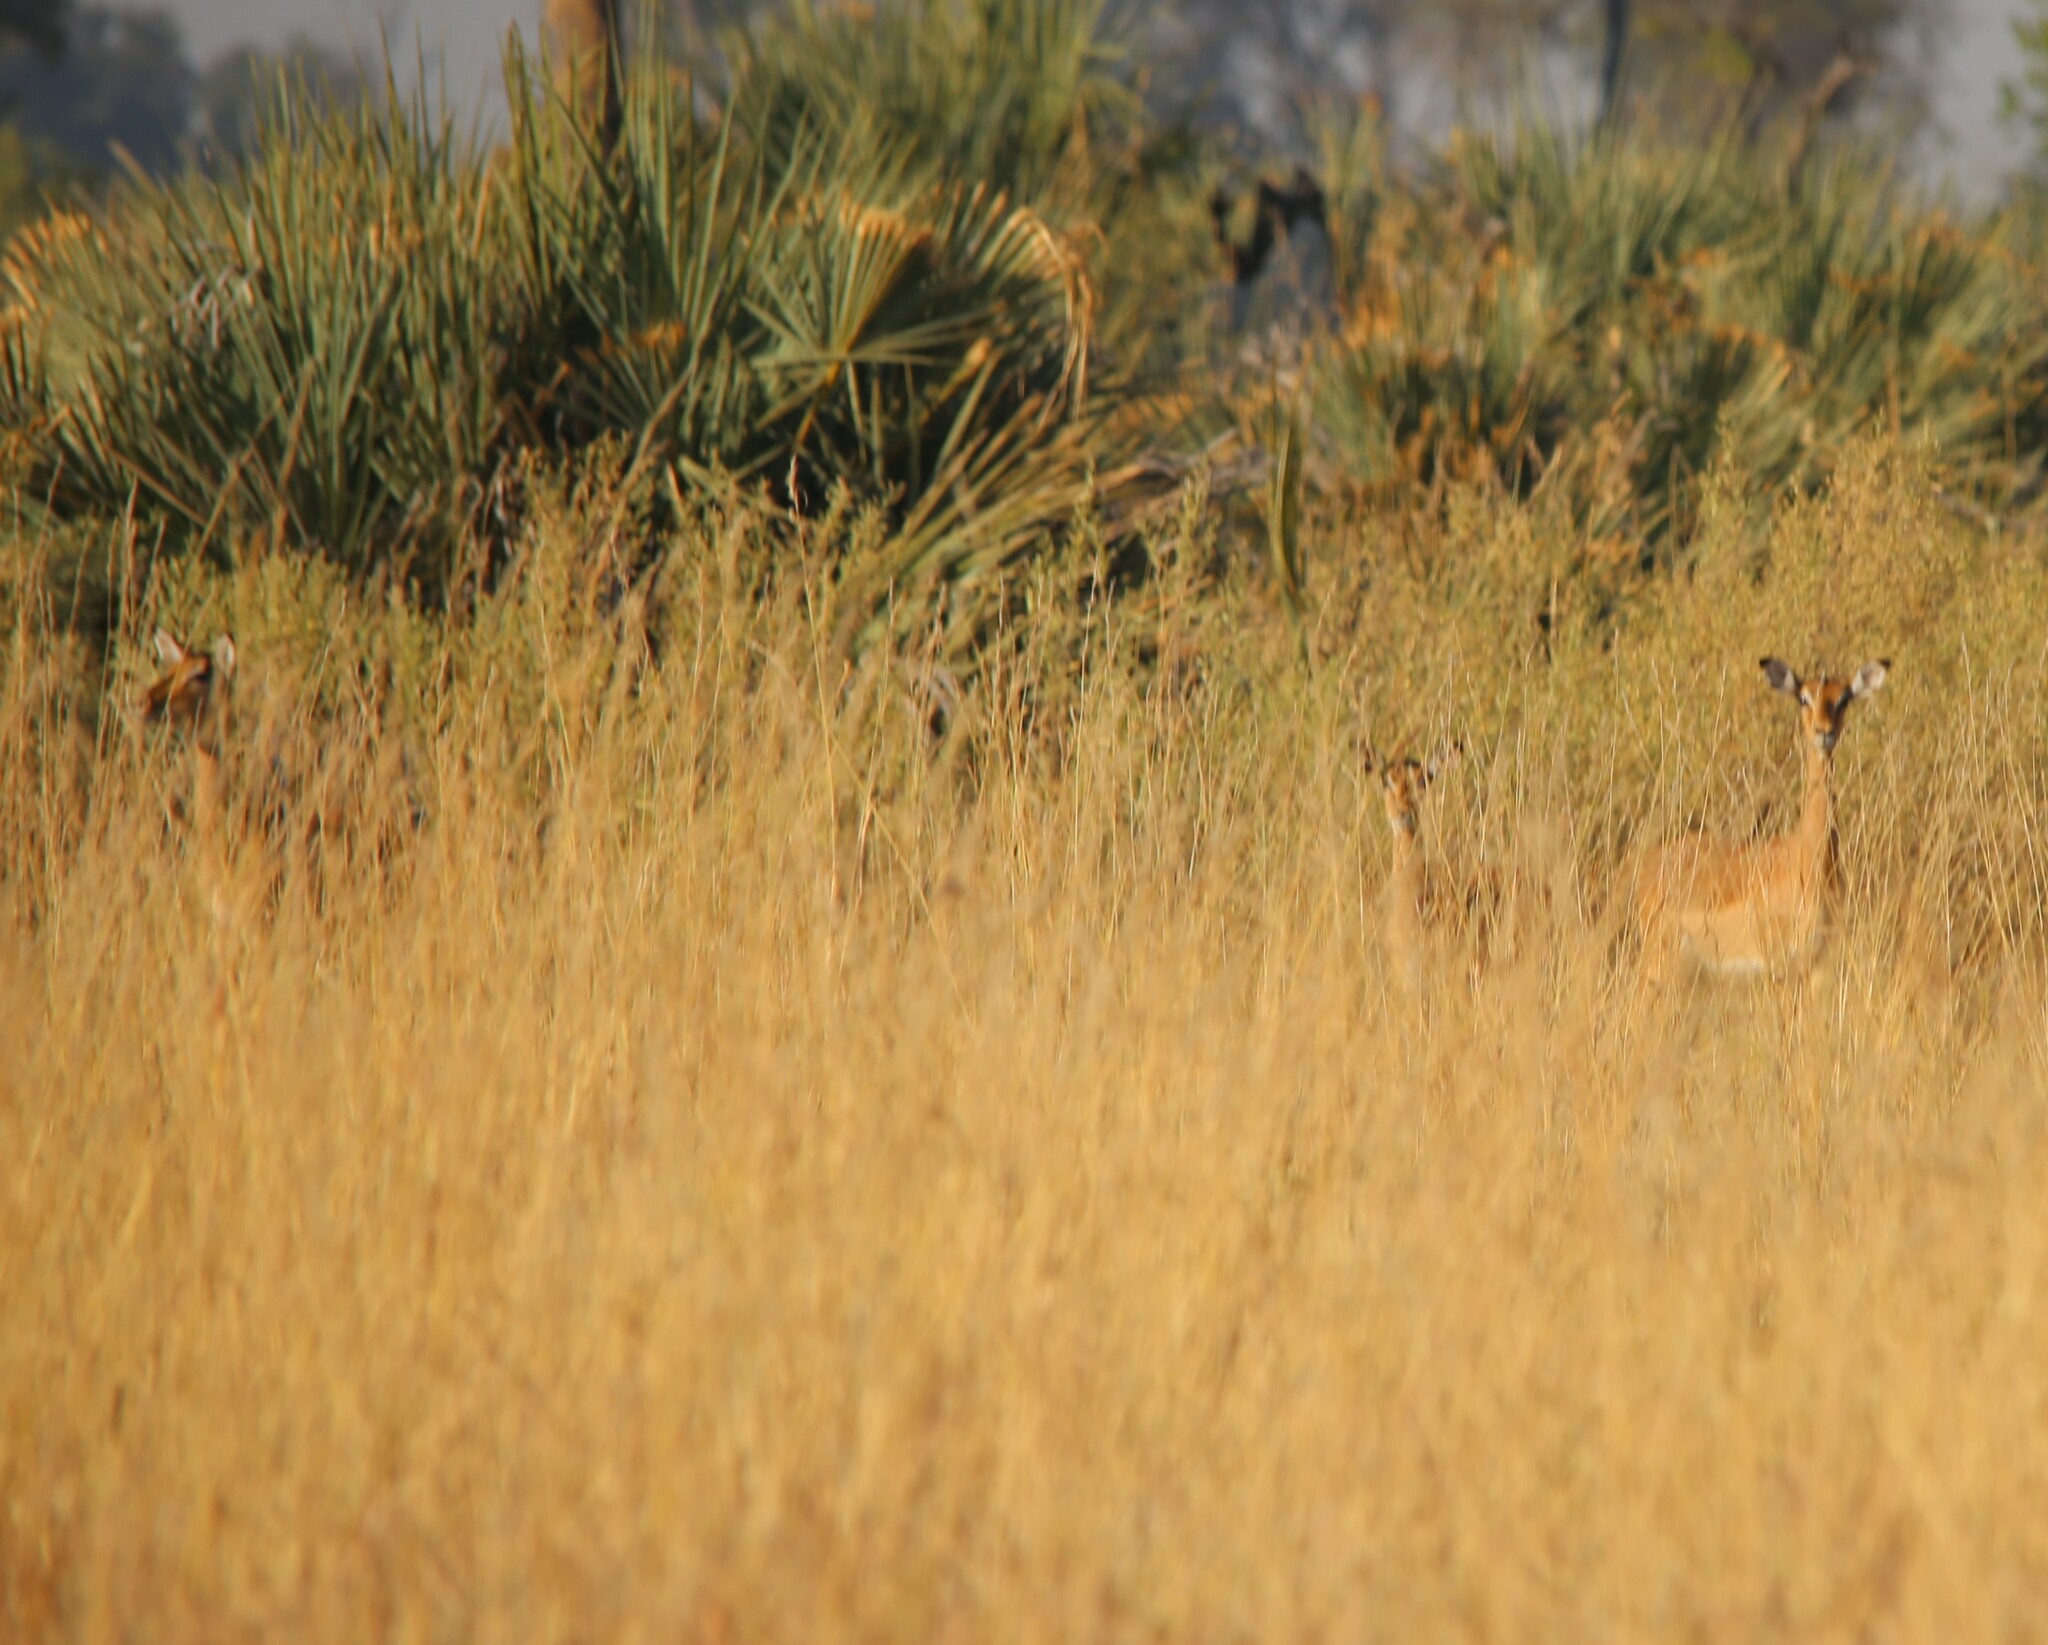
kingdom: Animalia
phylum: Chordata
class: Mammalia
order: Artiodactyla
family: Bovidae
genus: Aepyceros
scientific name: Aepyceros melampus
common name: Impala
